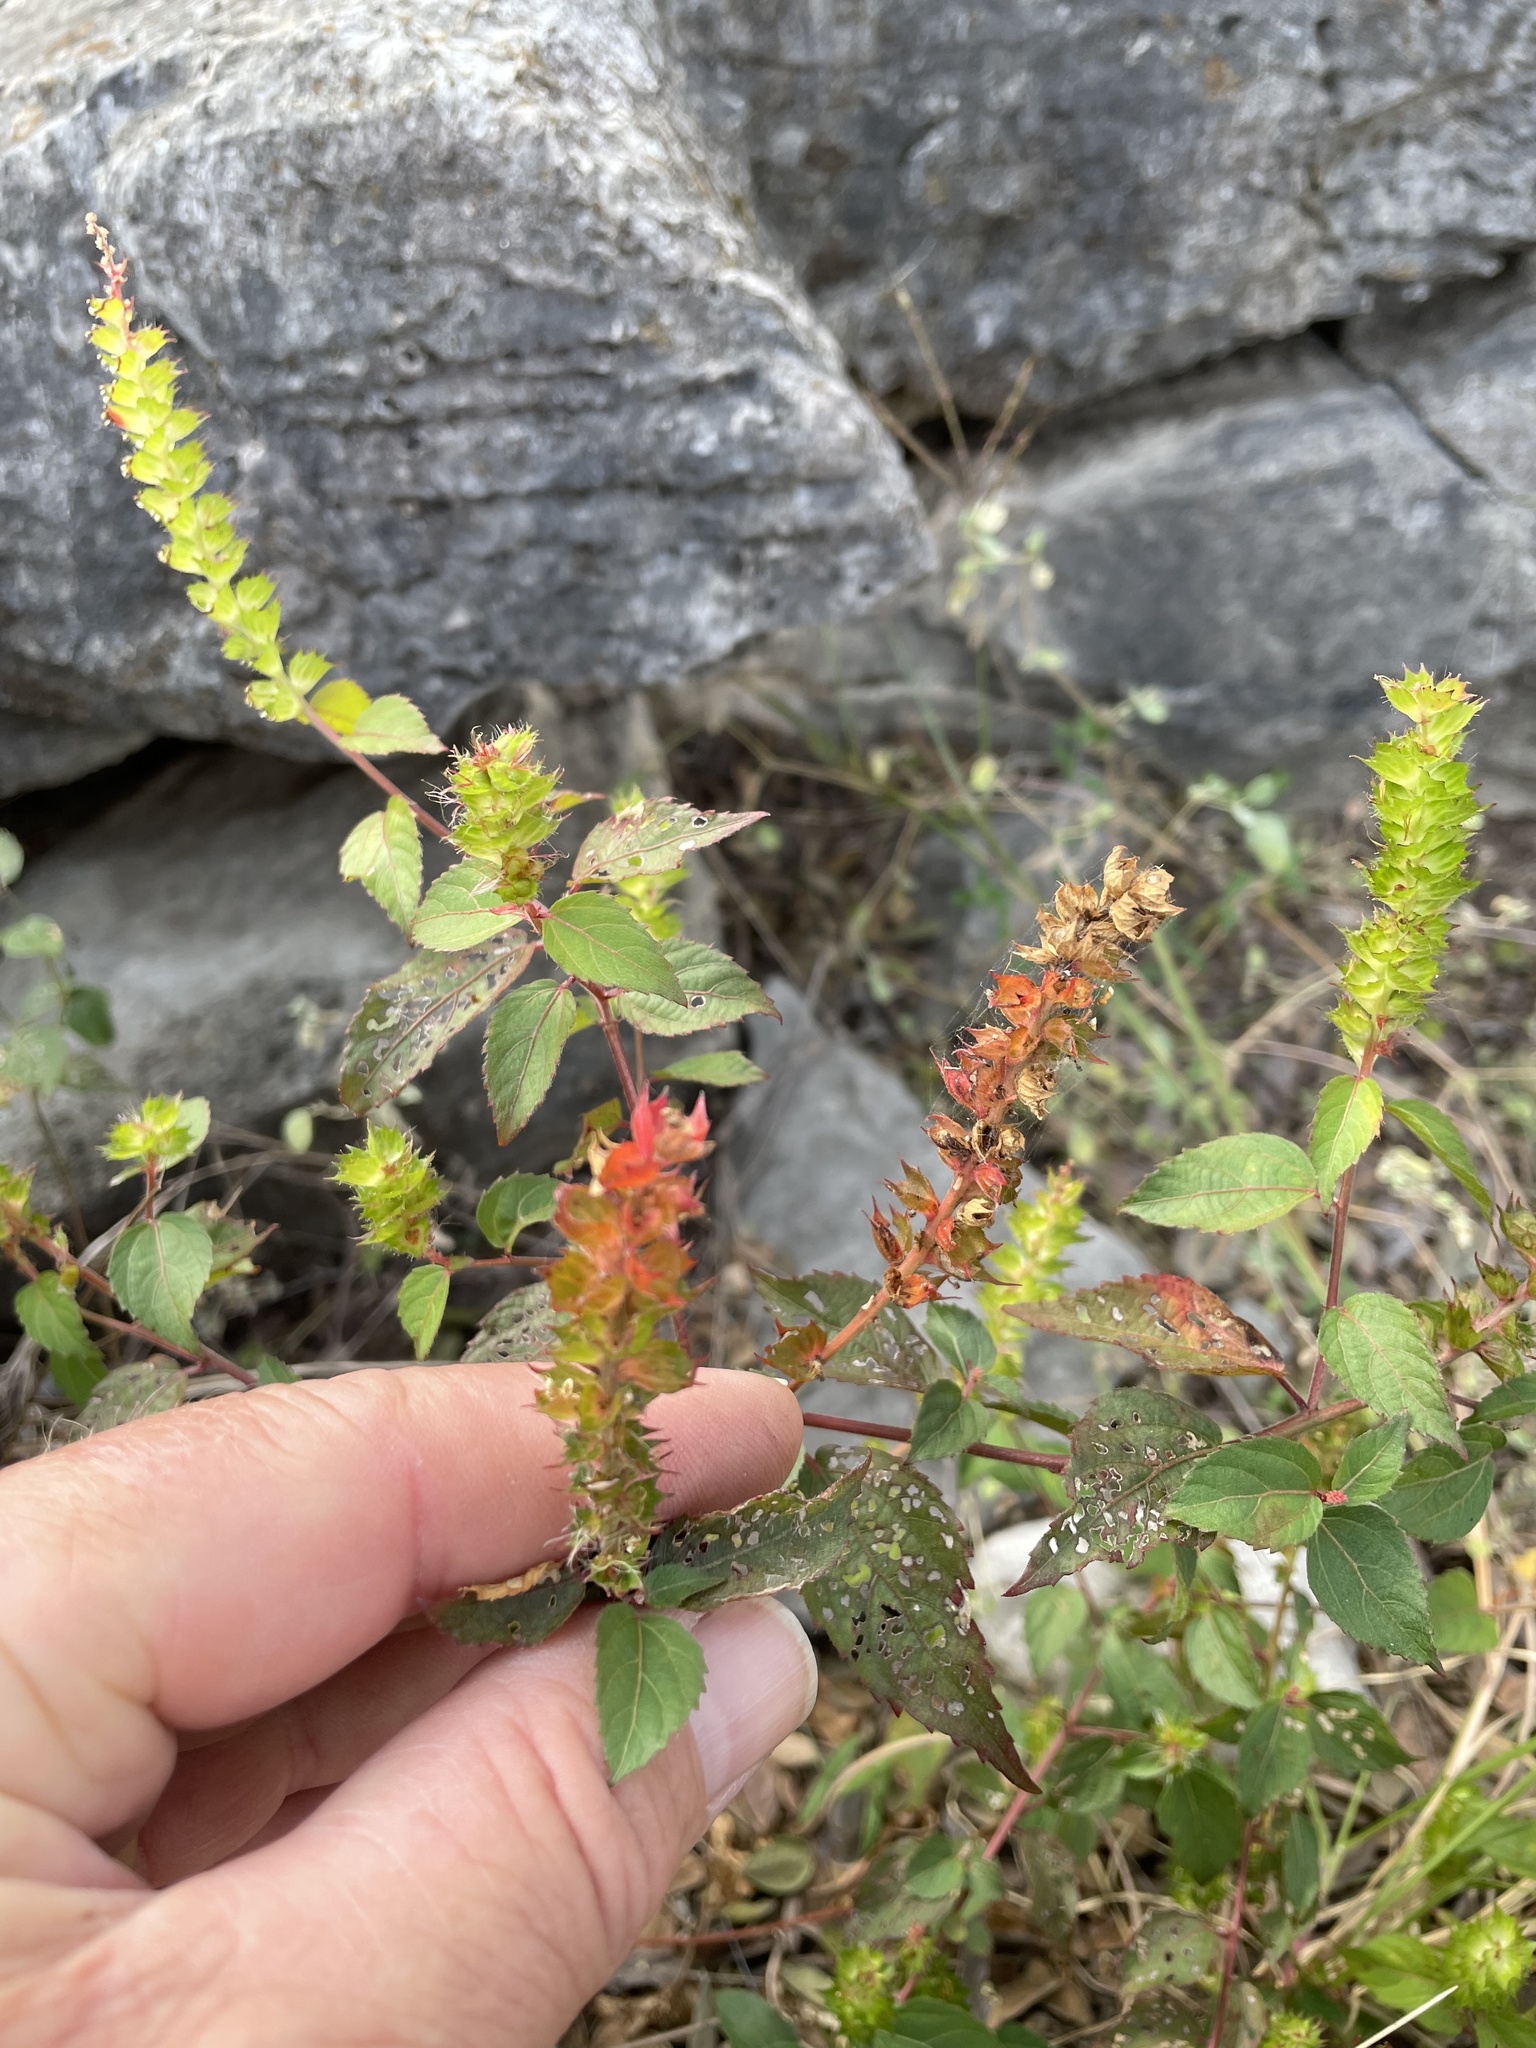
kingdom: Plantae
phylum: Tracheophyta
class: Magnoliopsida
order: Malpighiales
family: Euphorbiaceae
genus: Acalypha
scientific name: Acalypha phleoides
